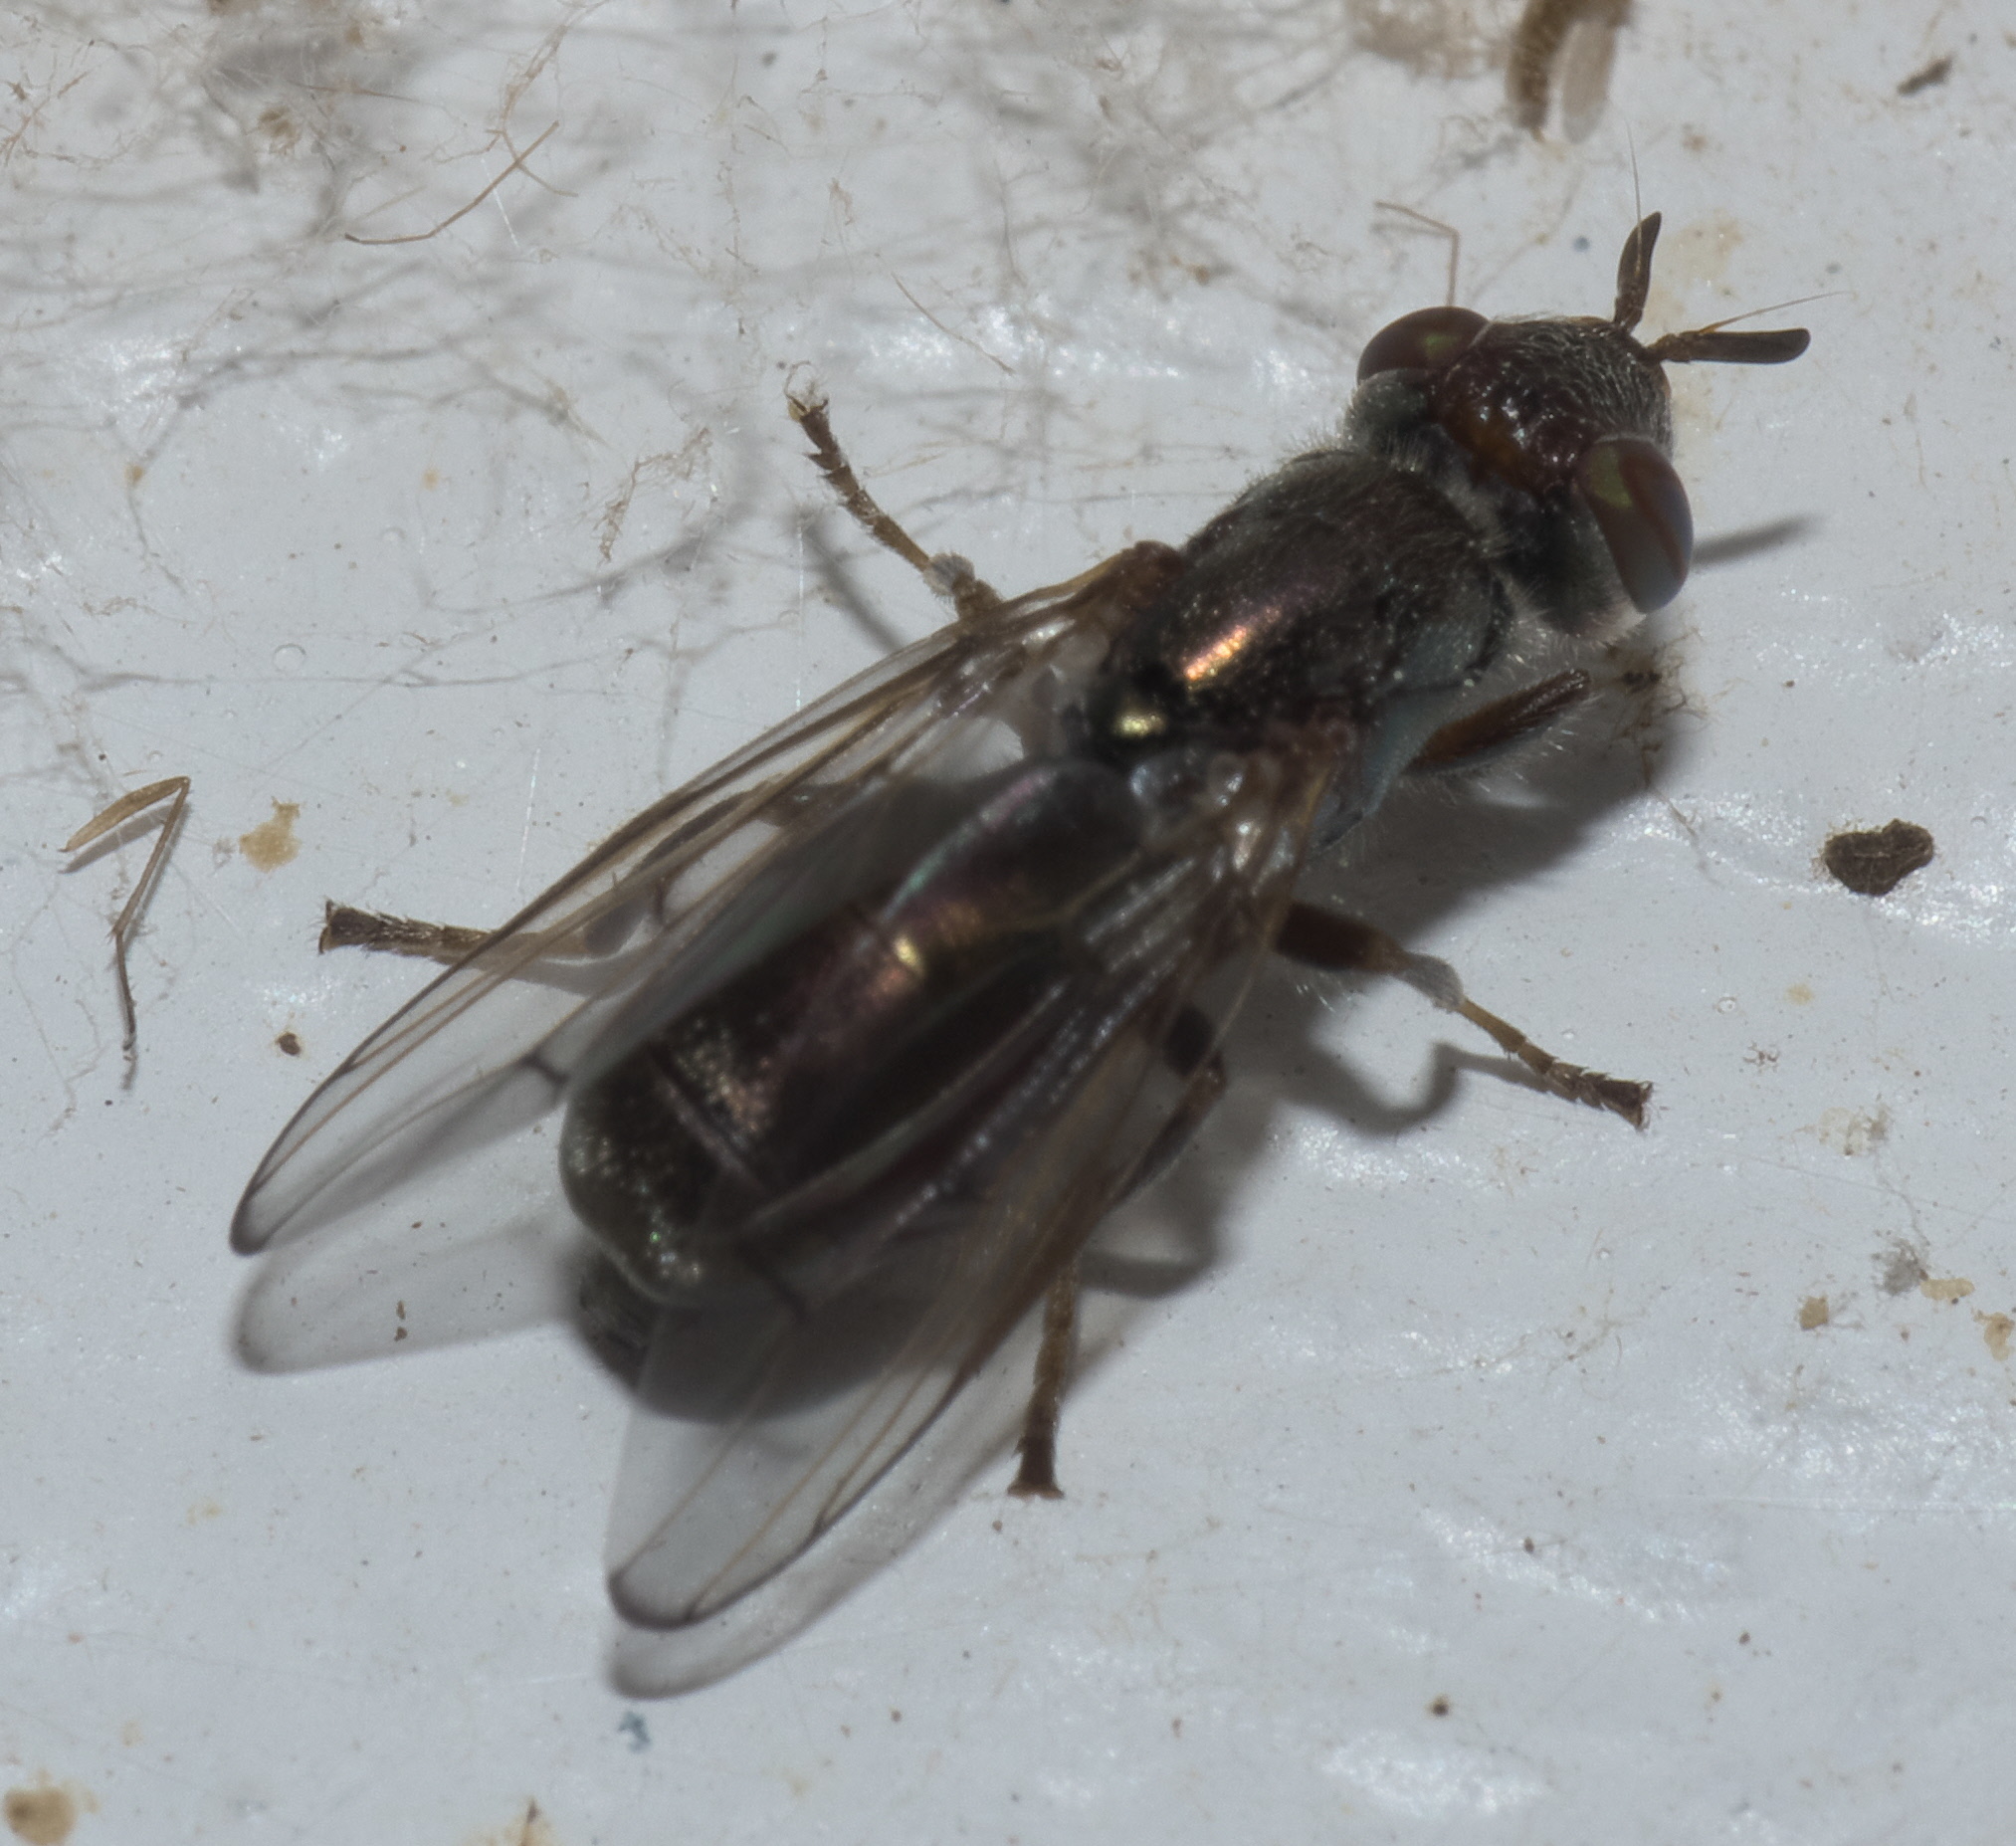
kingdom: Animalia
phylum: Arthropoda
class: Insecta
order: Diptera
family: Platystomatidae
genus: Senopterina
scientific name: Senopterina foxleei
